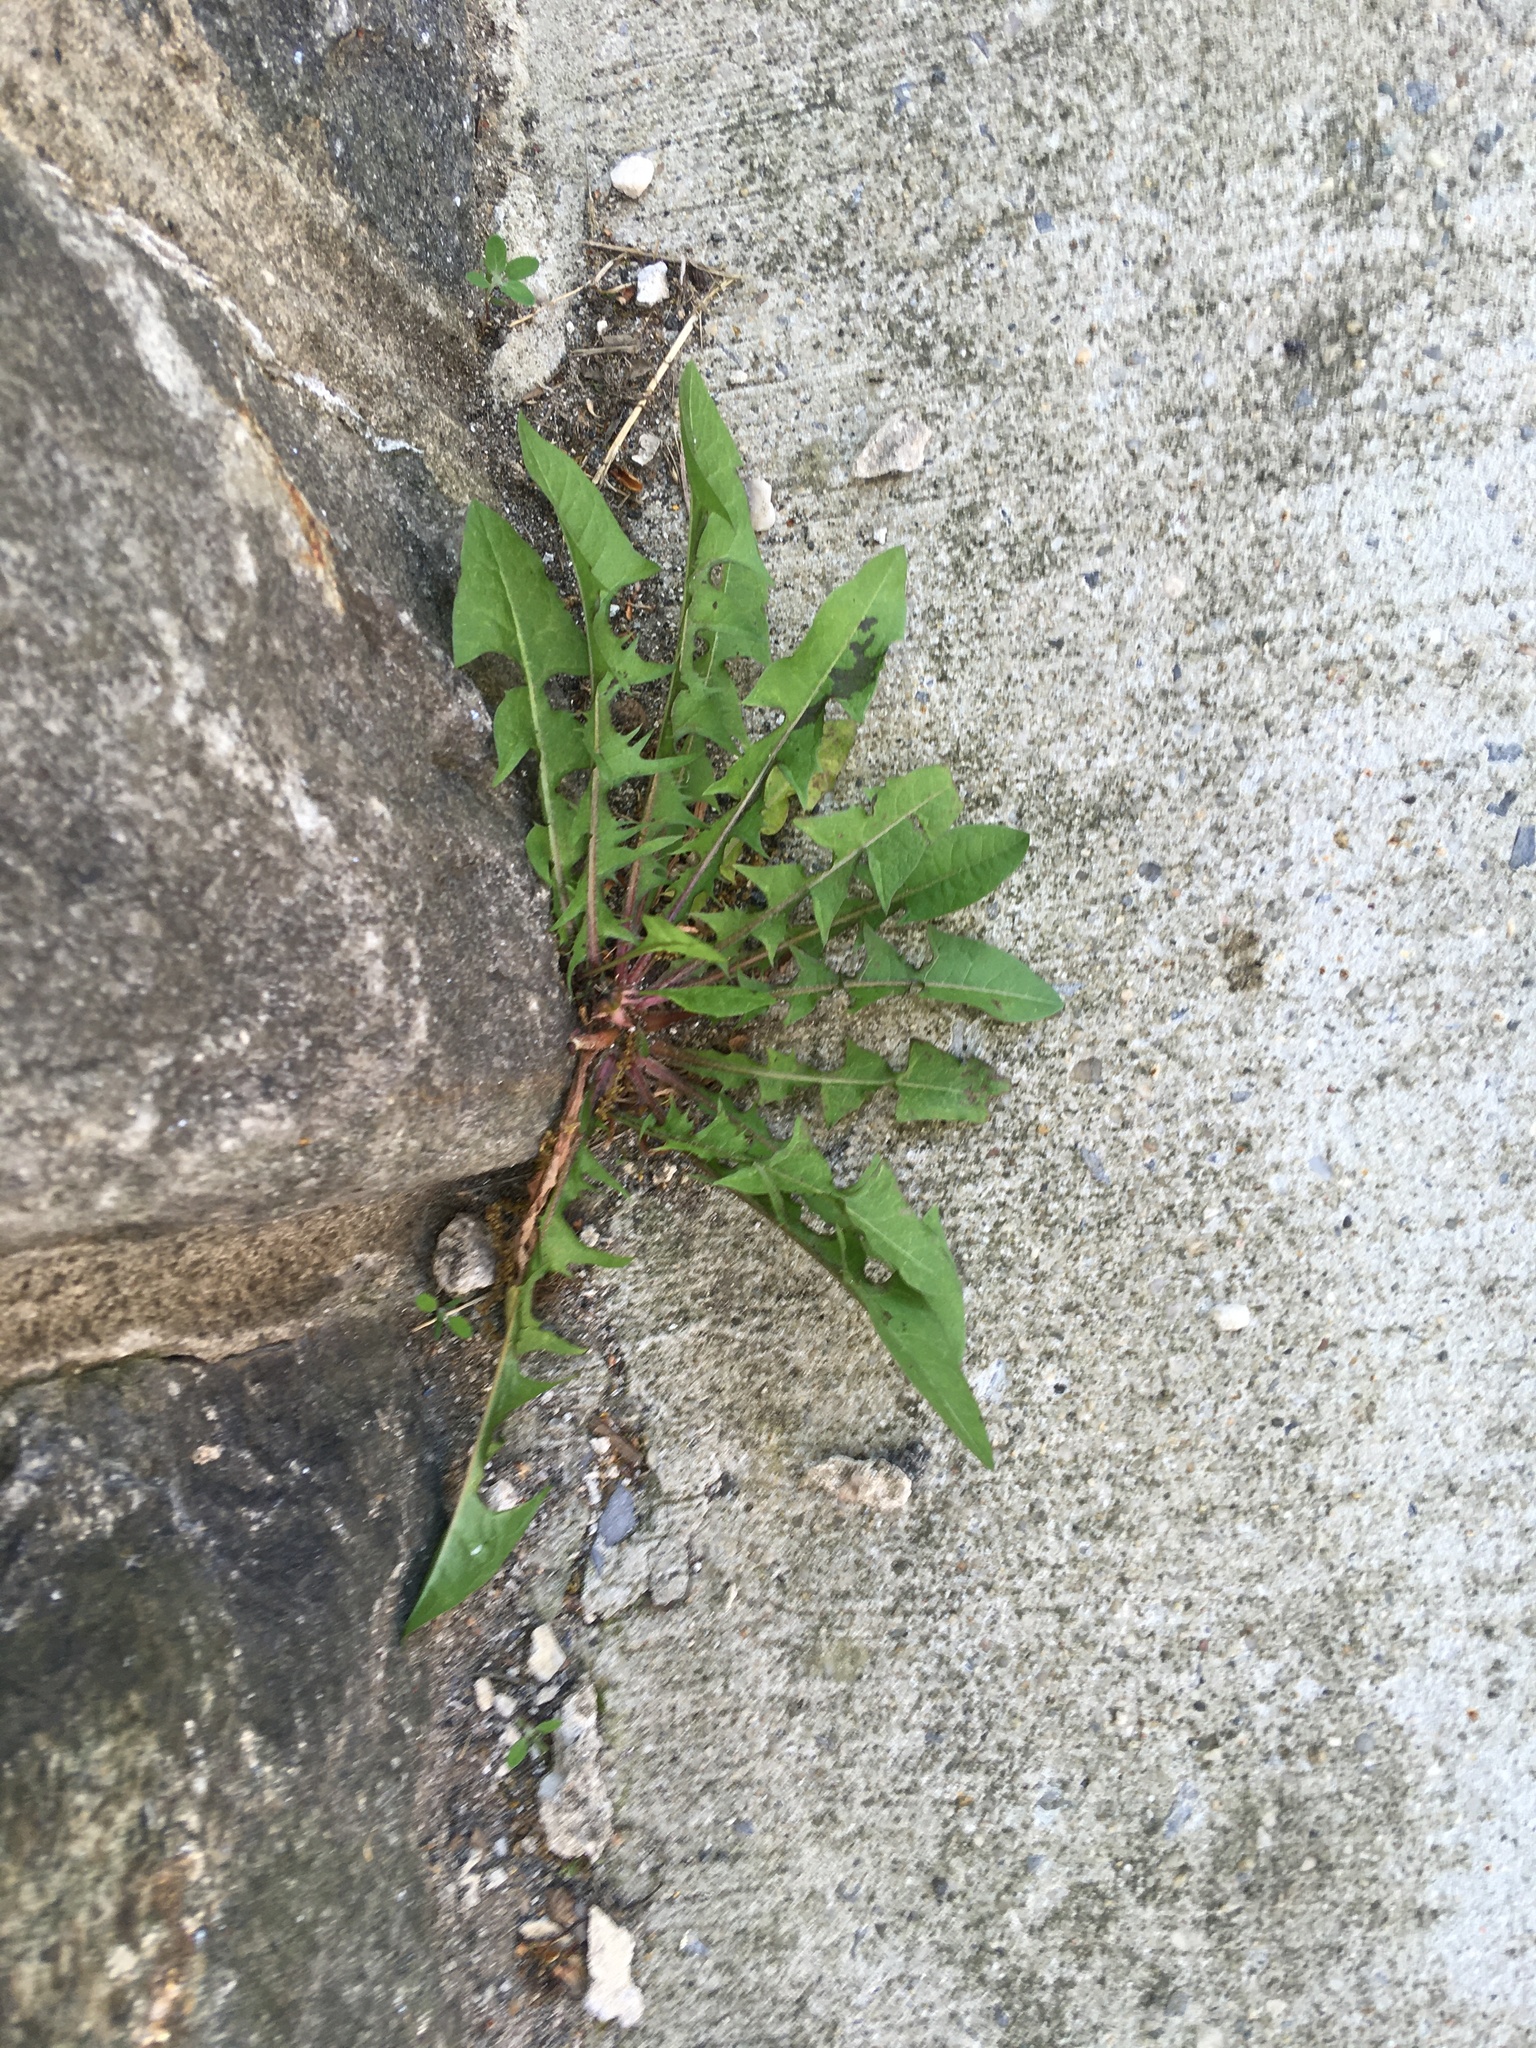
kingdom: Plantae
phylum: Tracheophyta
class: Magnoliopsida
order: Asterales
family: Asteraceae
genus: Taraxacum
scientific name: Taraxacum
